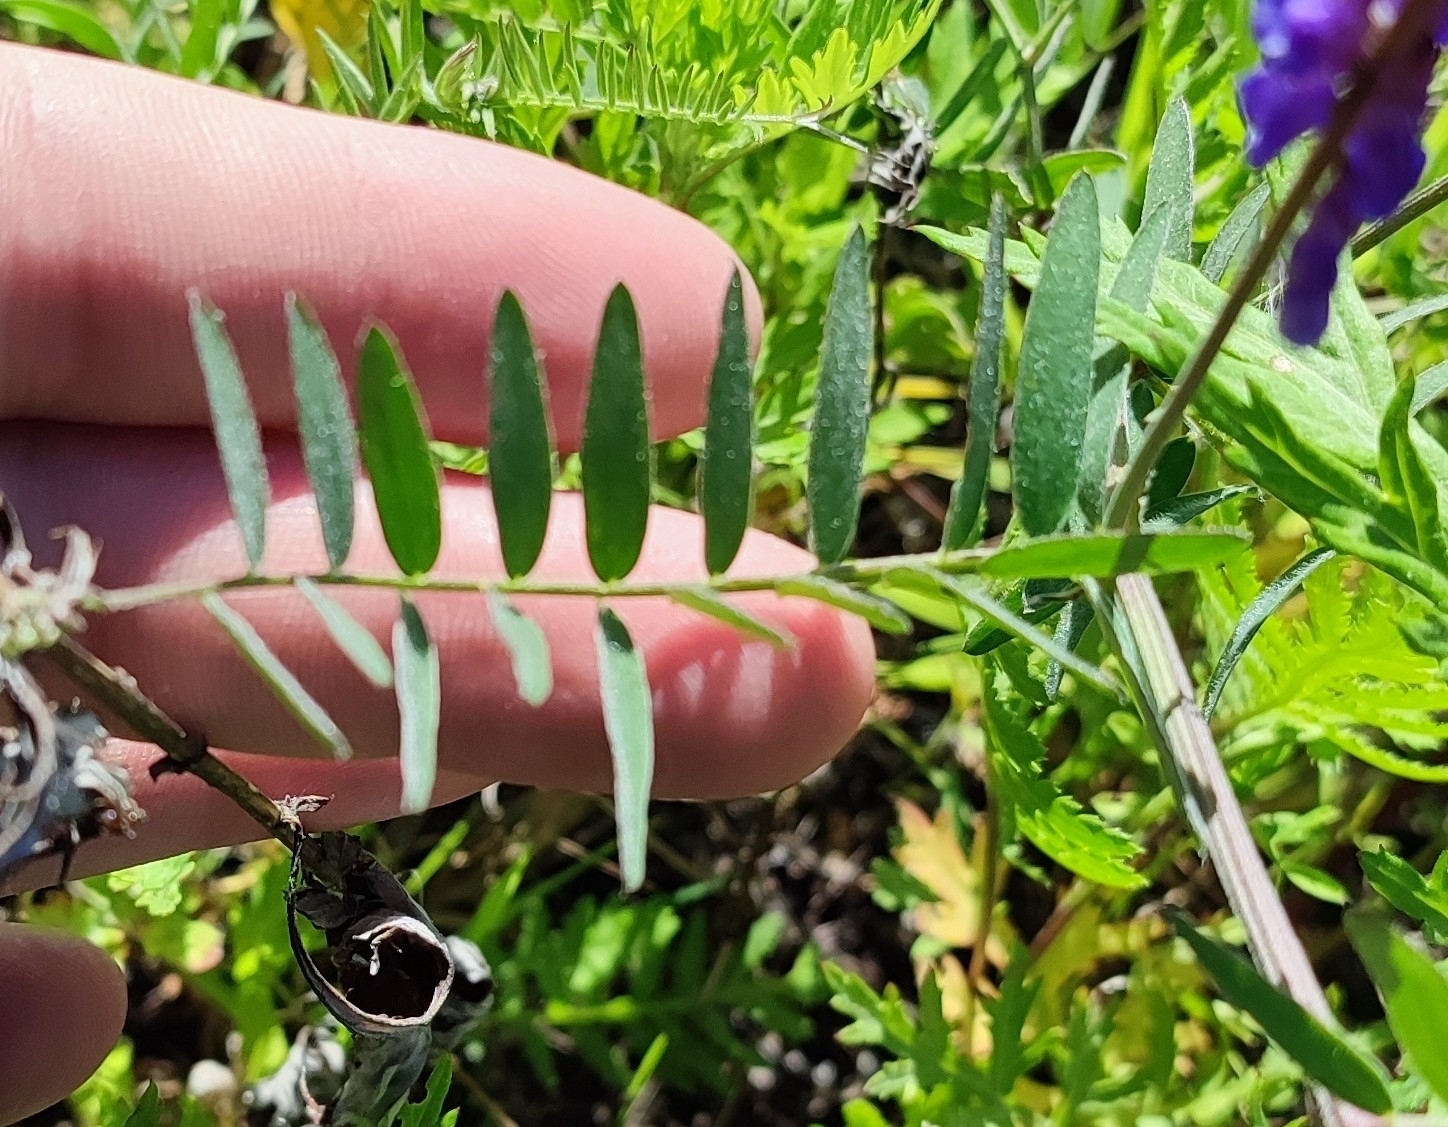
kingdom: Plantae
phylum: Tracheophyta
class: Magnoliopsida
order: Fabales
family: Fabaceae
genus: Vicia
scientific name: Vicia cracca
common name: Bird vetch
